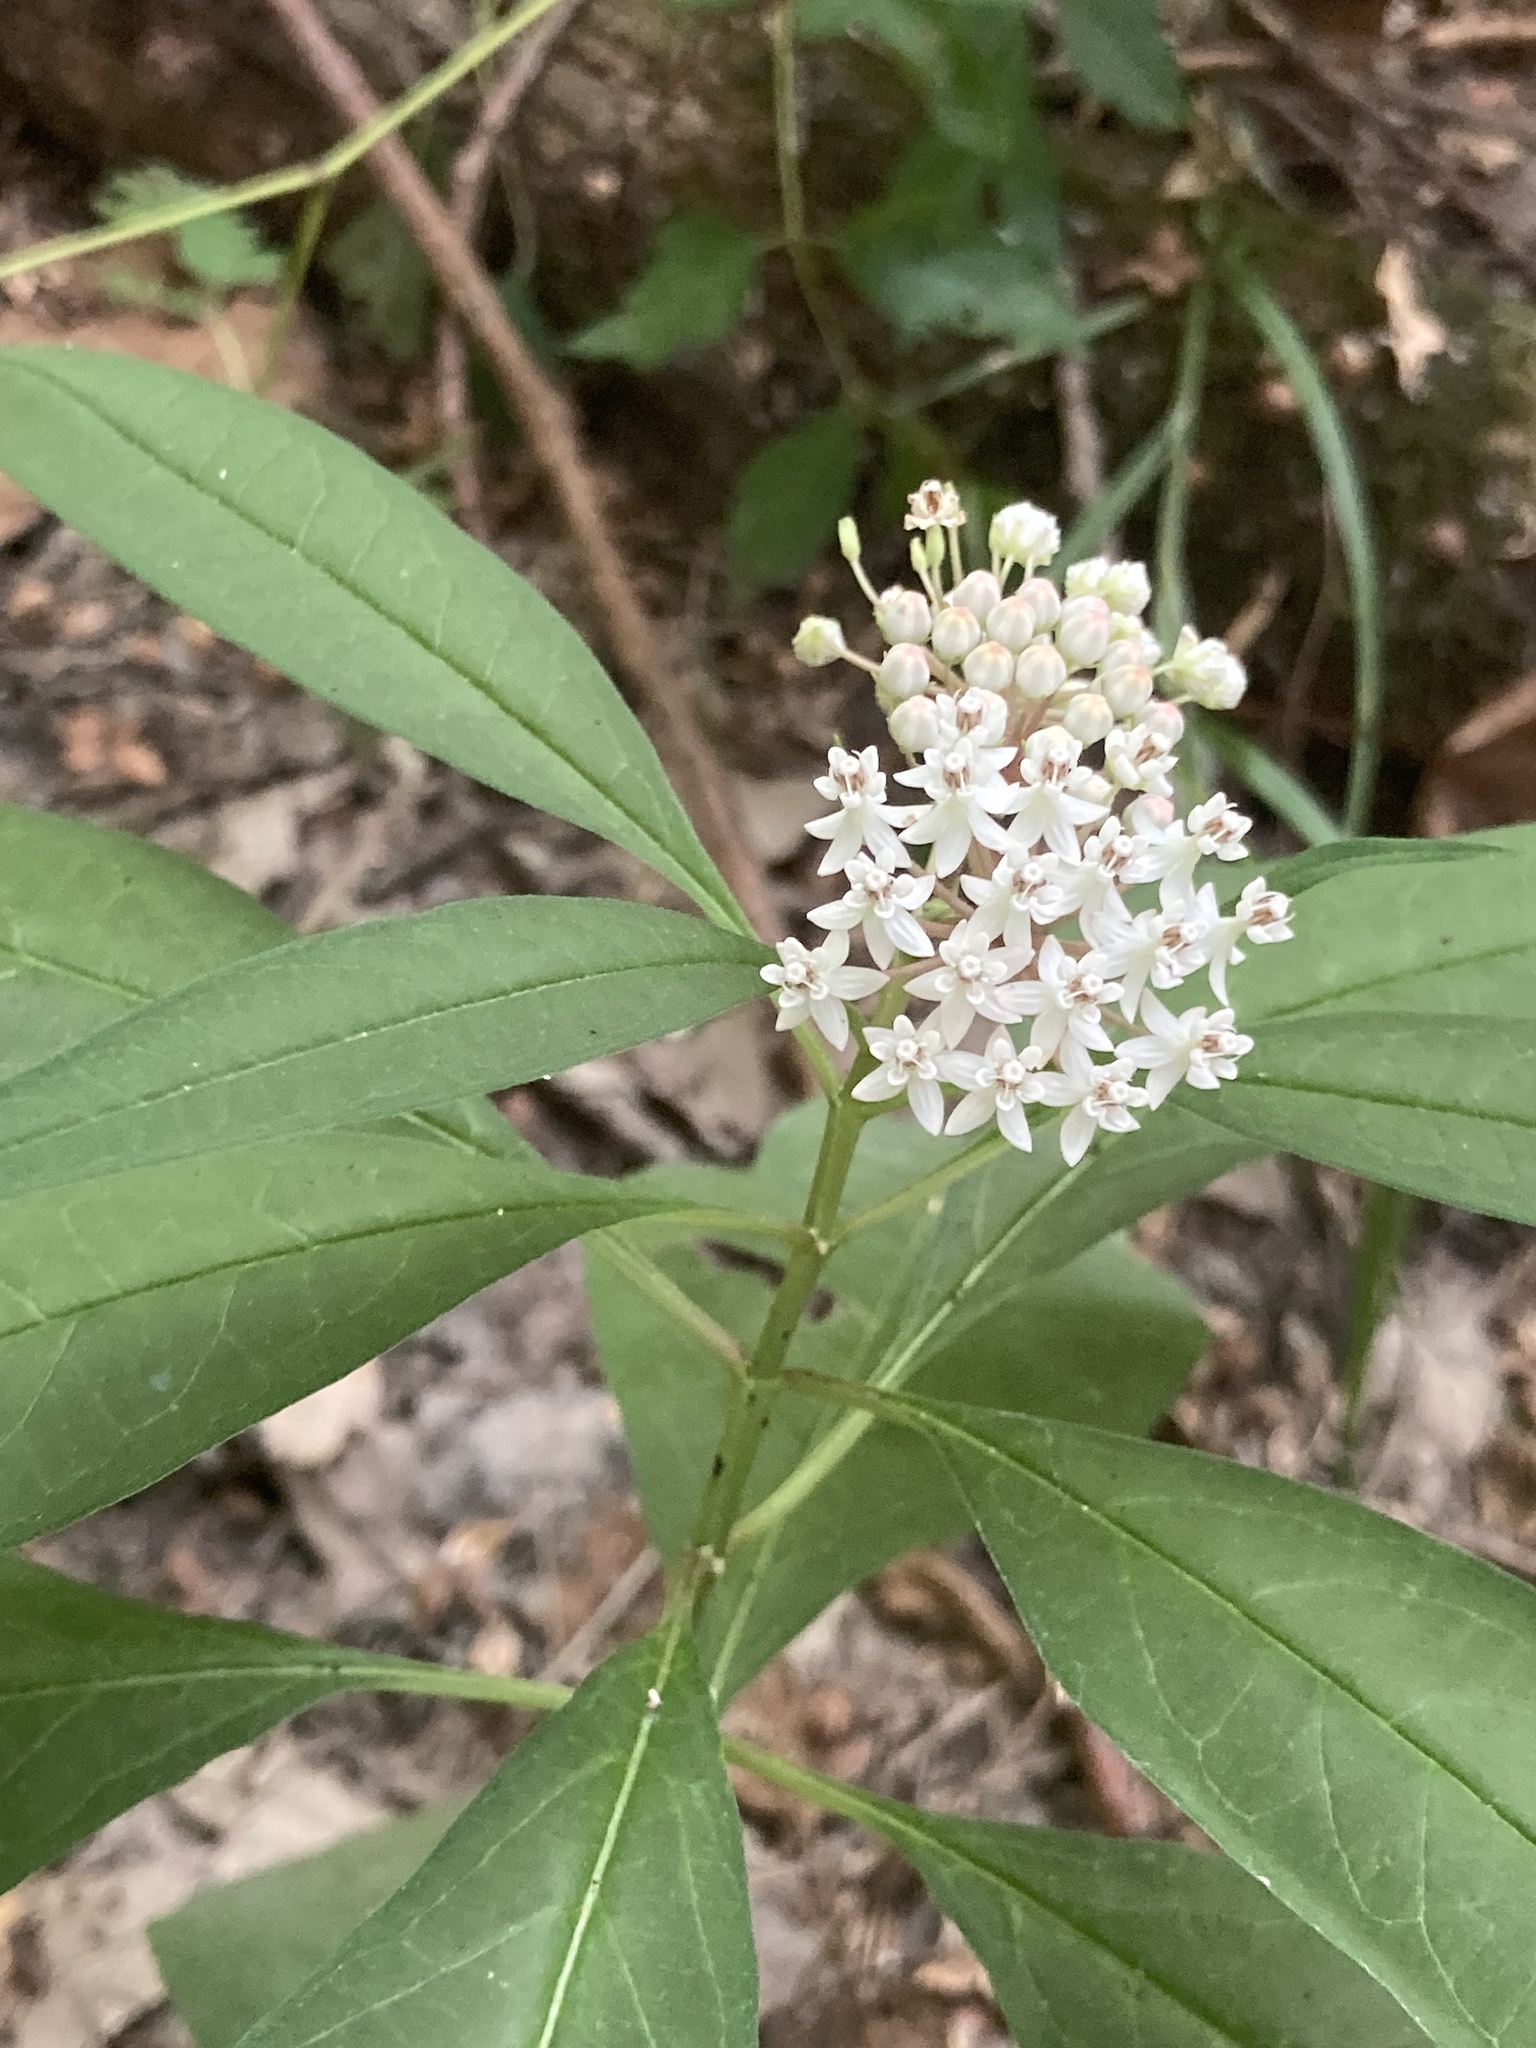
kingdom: Plantae
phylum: Tracheophyta
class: Magnoliopsida
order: Gentianales
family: Apocynaceae
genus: Asclepias
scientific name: Asclepias perennis
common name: Smooth-seed milkweed
